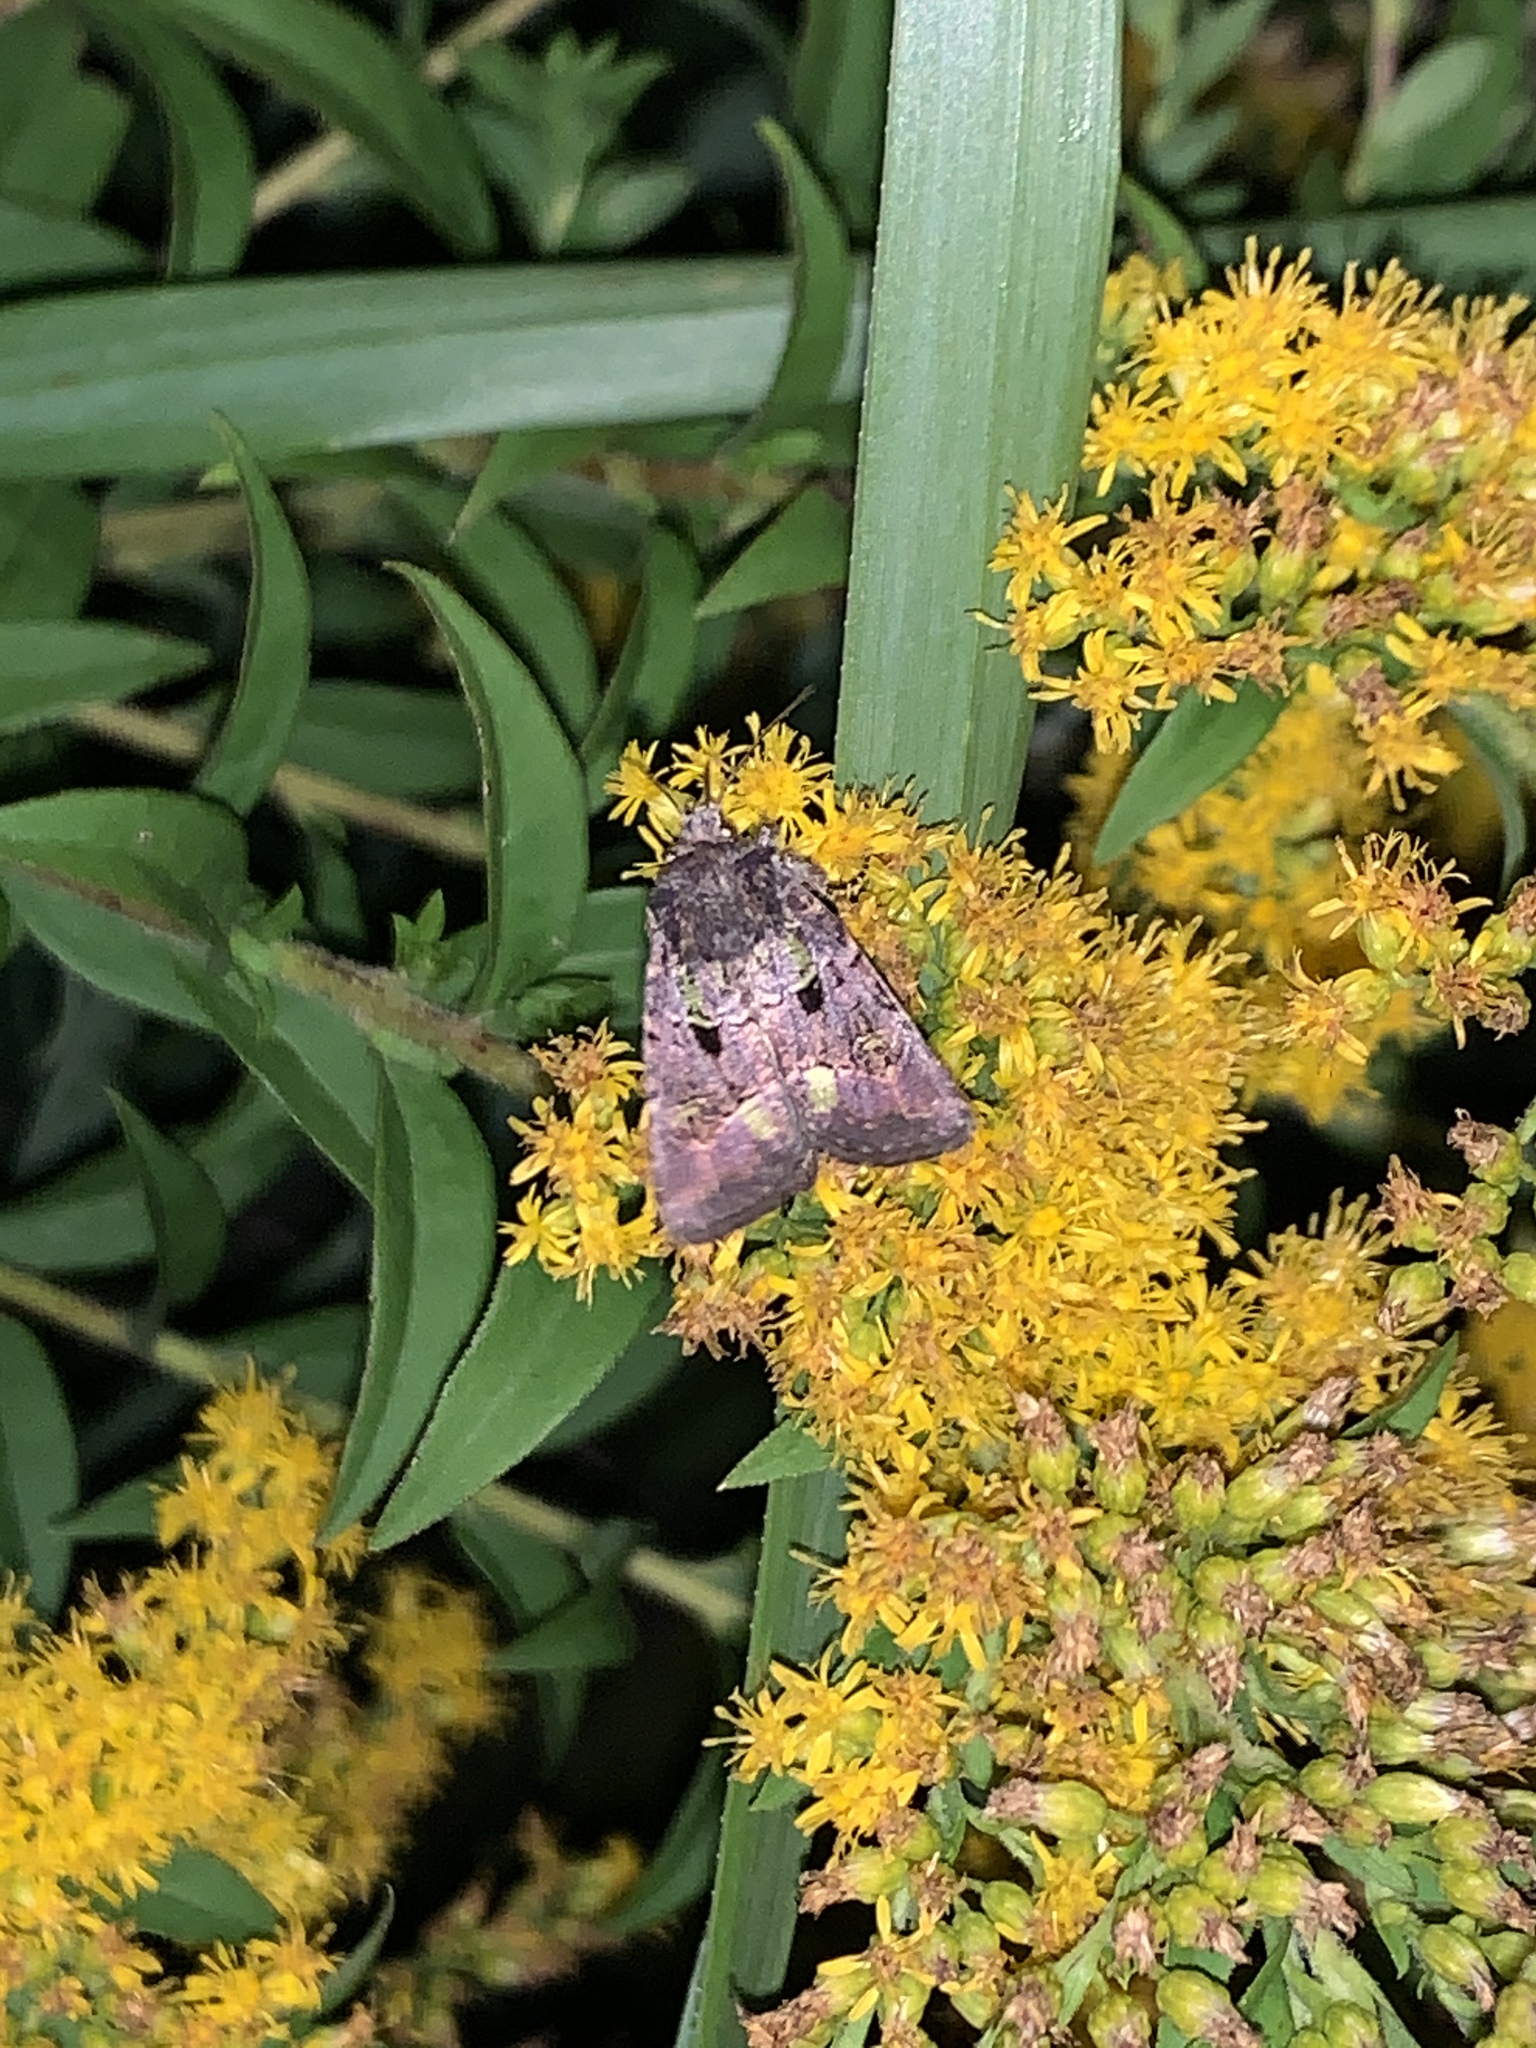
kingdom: Animalia
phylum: Arthropoda
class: Insecta
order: Lepidoptera
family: Noctuidae
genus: Lacinipolia
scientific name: Lacinipolia renigera
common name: Kidney-spotted minor
